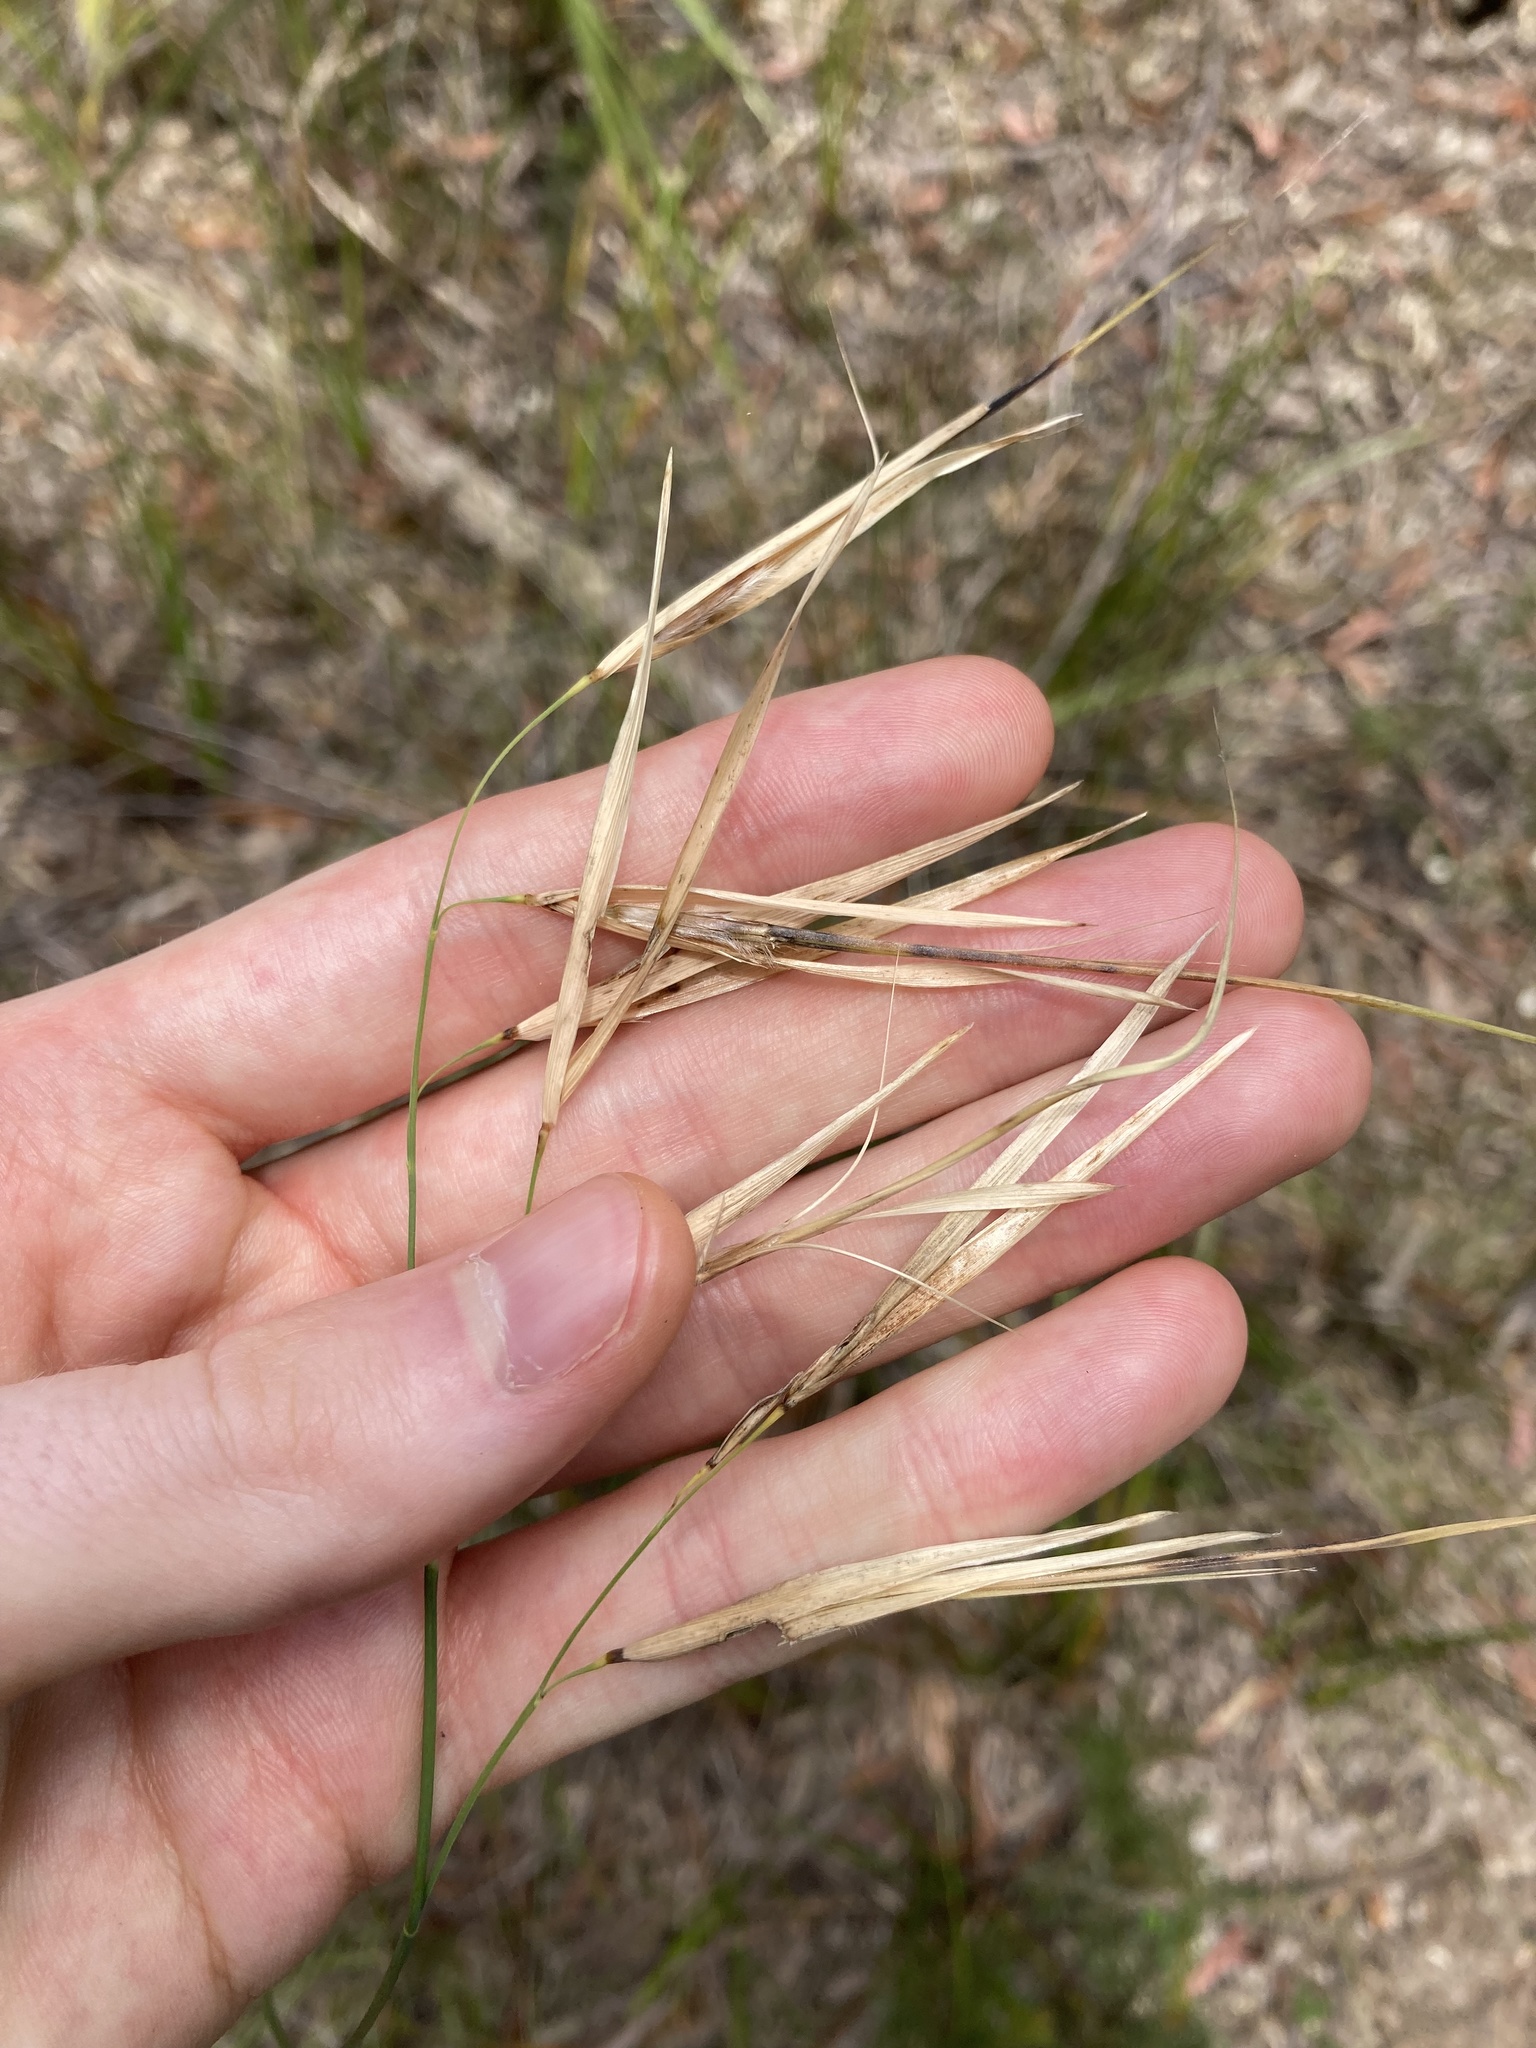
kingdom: Plantae
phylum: Tracheophyta
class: Liliopsida
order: Poales
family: Poaceae
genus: Anisopogon
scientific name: Anisopogon avenaceus
